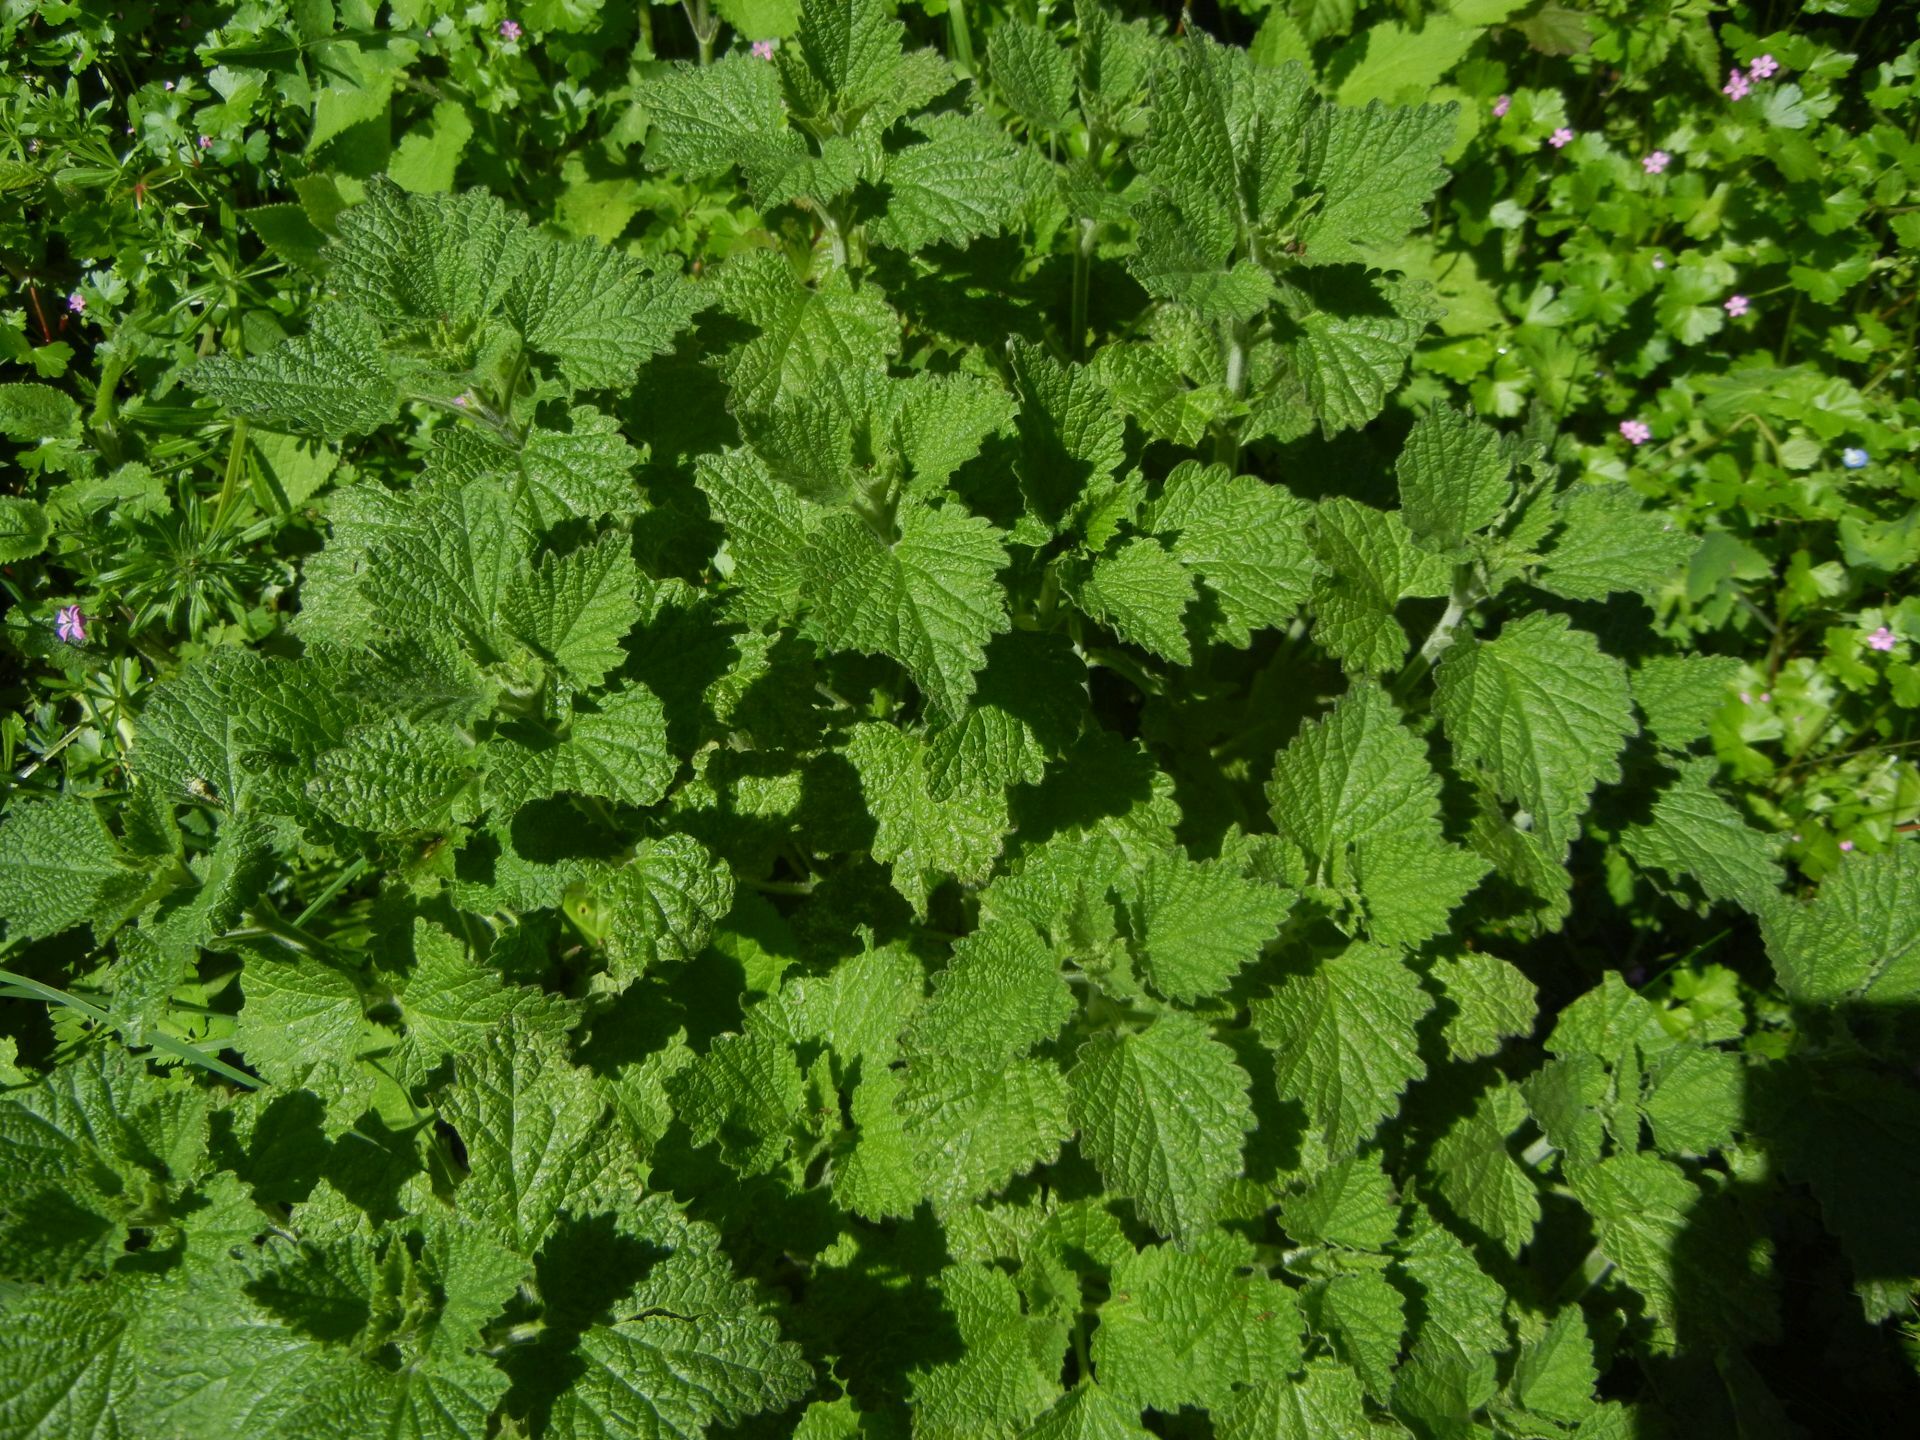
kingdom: Plantae
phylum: Tracheophyta
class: Magnoliopsida
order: Lamiales
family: Lamiaceae
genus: Ballota
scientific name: Ballota nigra
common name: Black horehound
